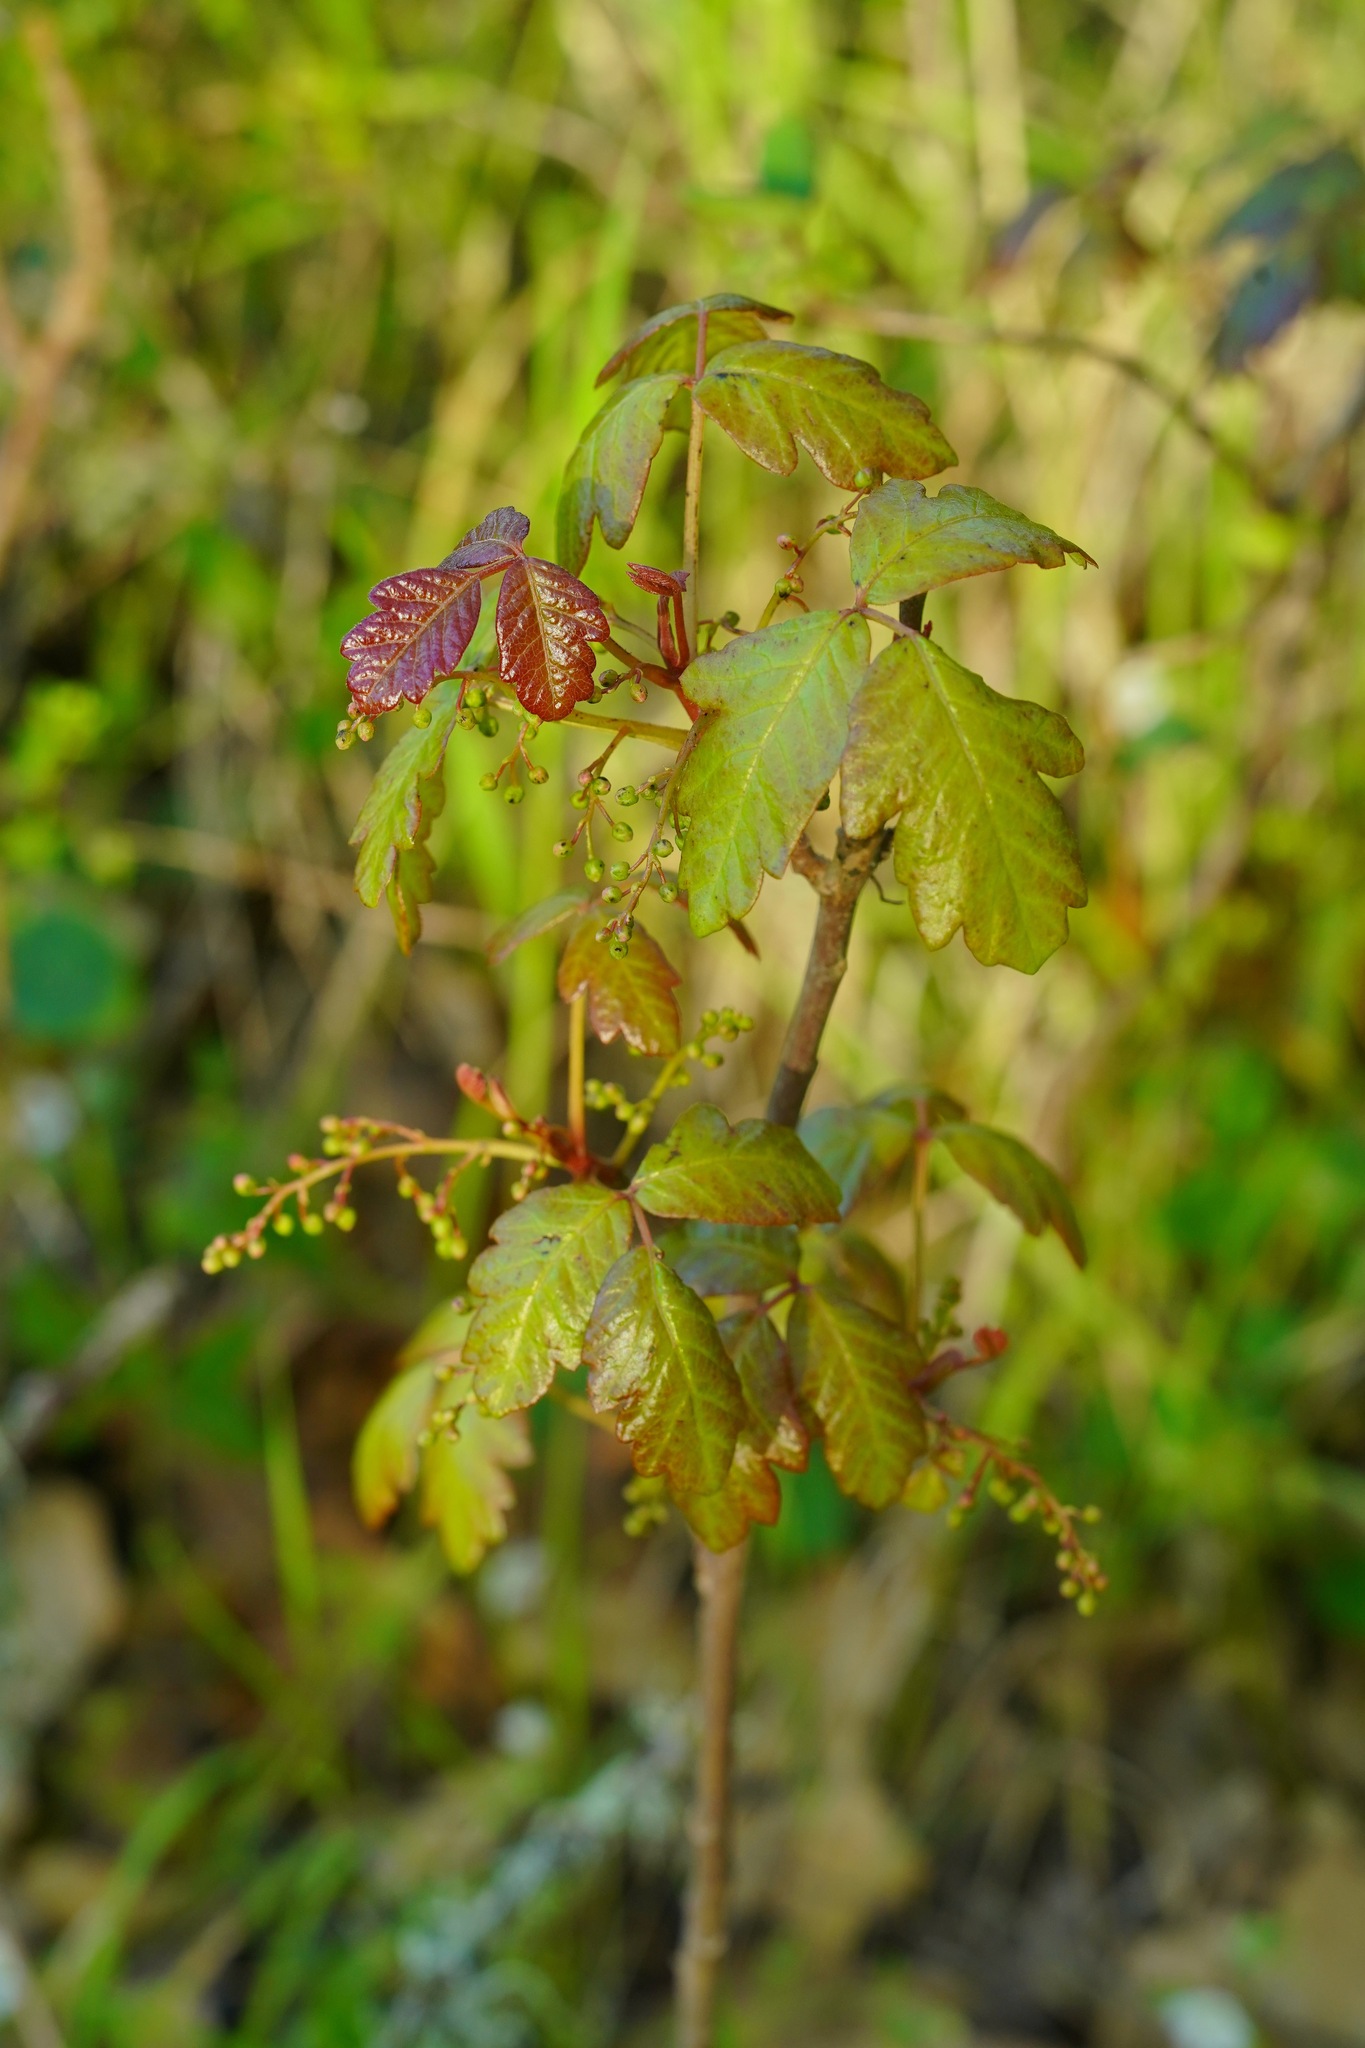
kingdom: Plantae
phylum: Tracheophyta
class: Magnoliopsida
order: Sapindales
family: Anacardiaceae
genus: Toxicodendron
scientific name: Toxicodendron diversilobum
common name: Pacific poison-oak
